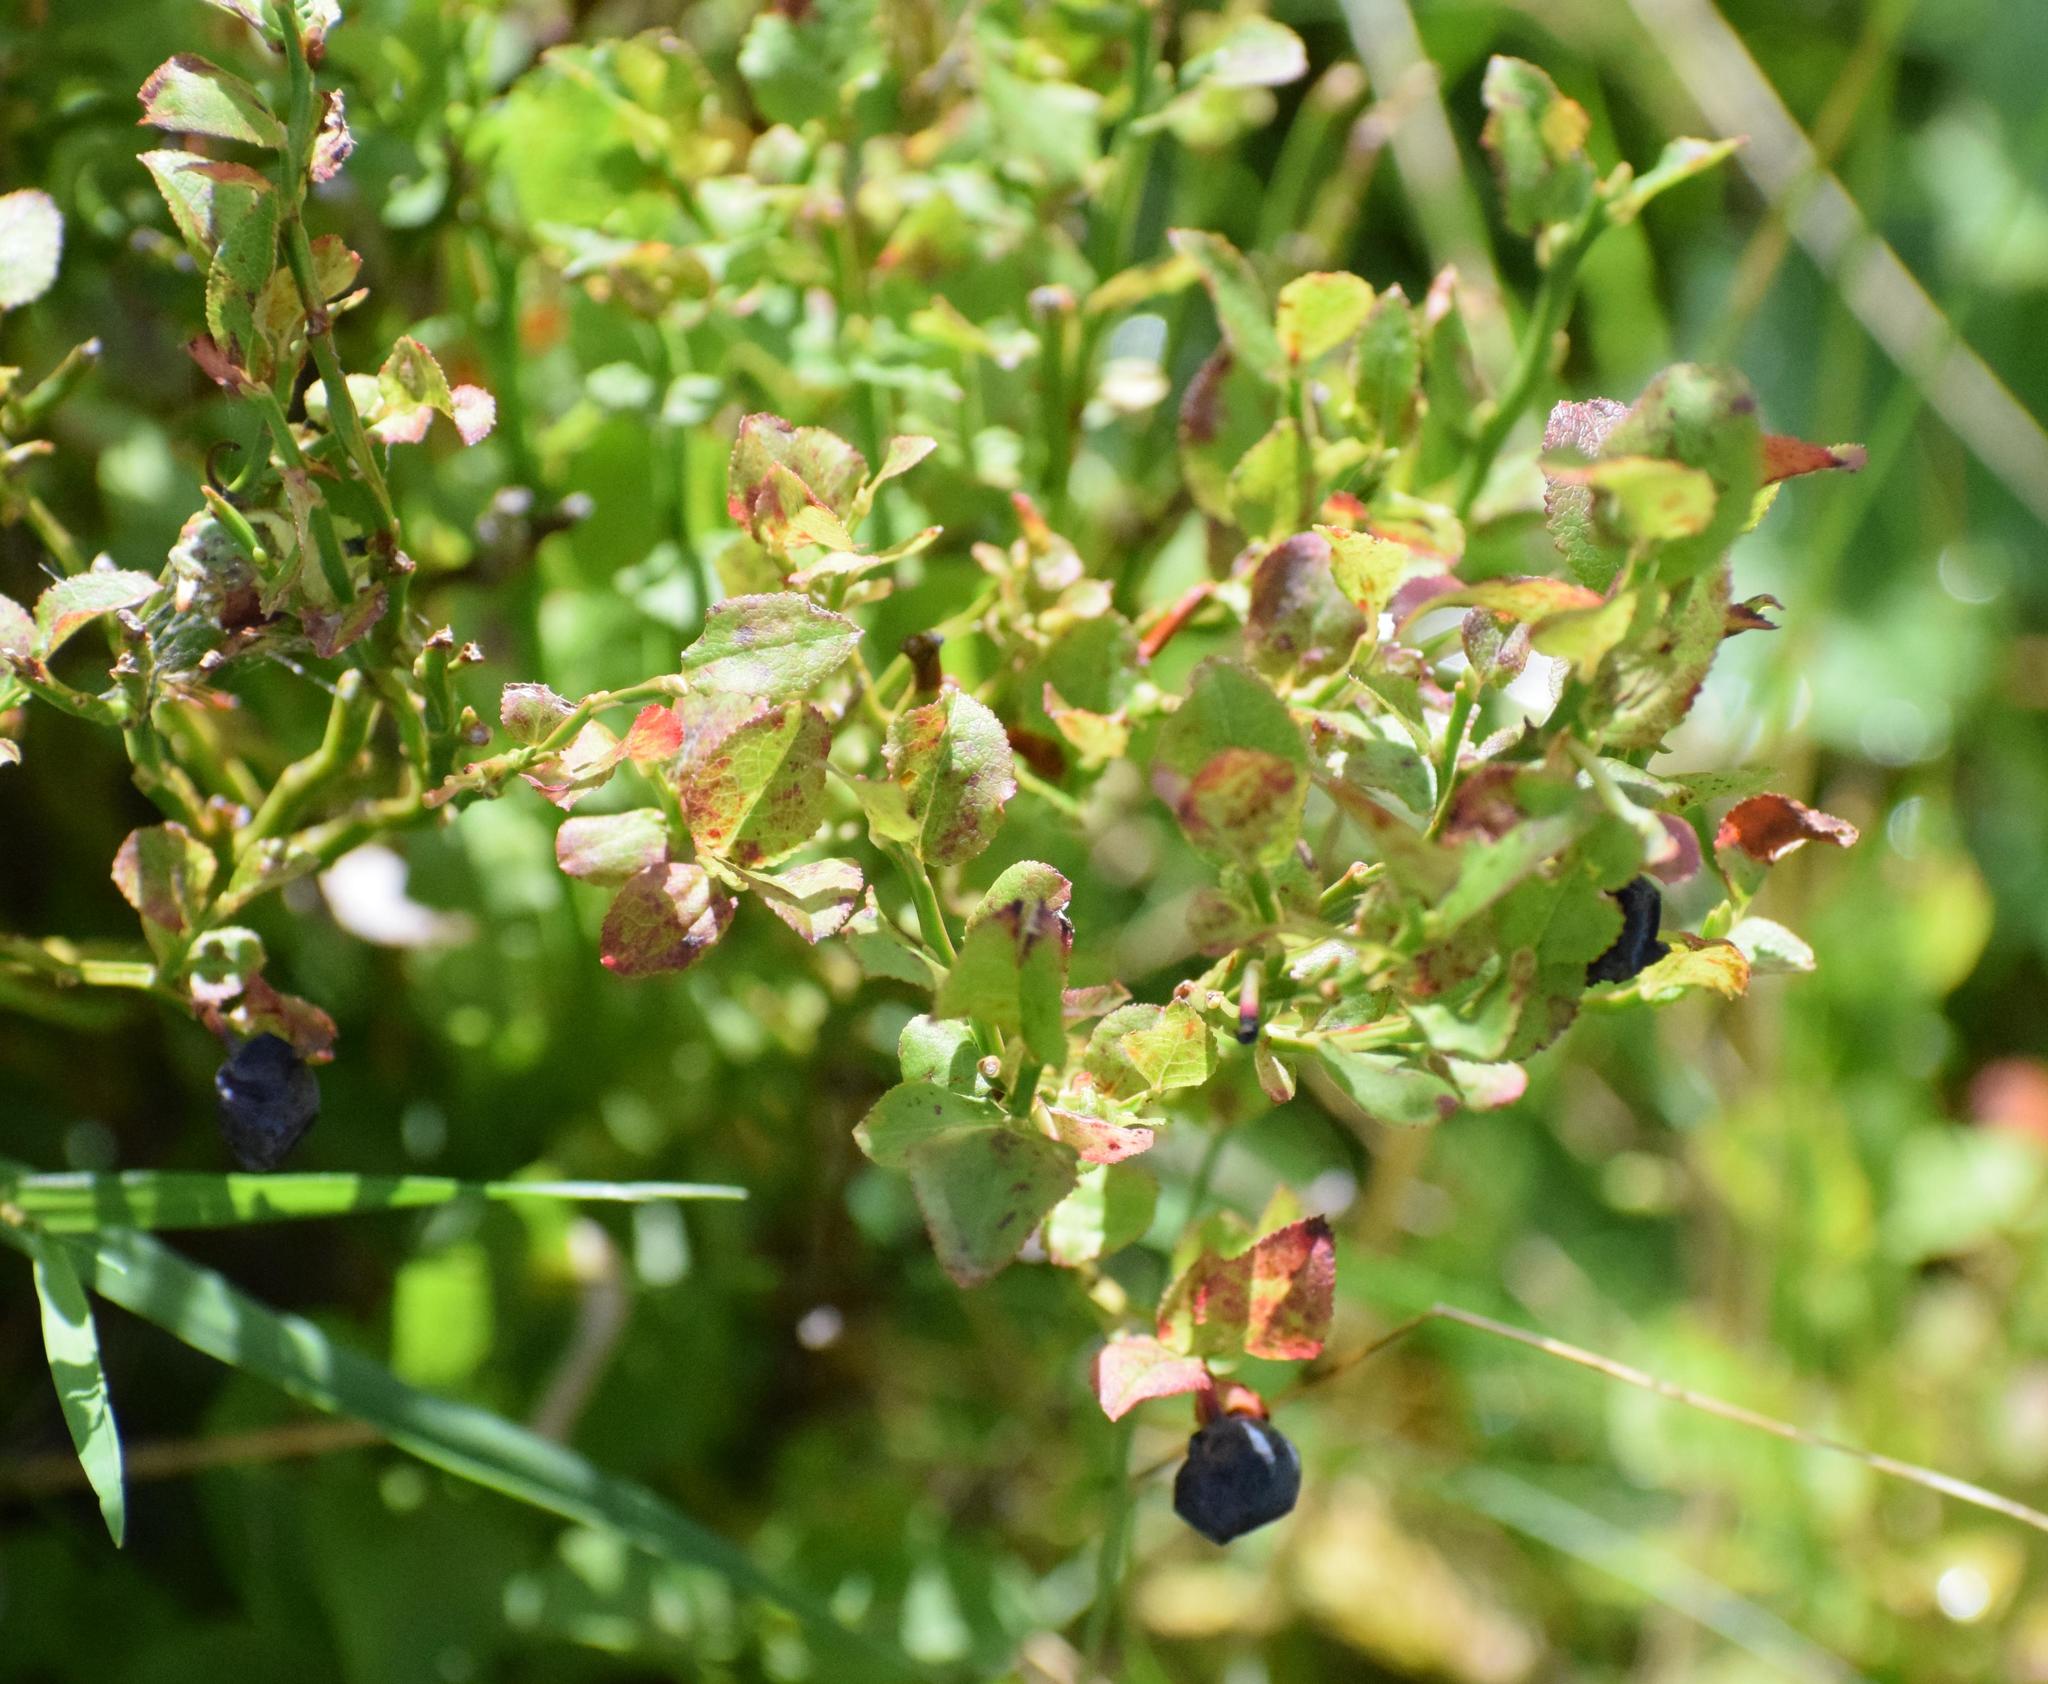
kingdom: Plantae
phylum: Tracheophyta
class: Magnoliopsida
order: Ericales
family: Ericaceae
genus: Vaccinium
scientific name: Vaccinium myrtillus
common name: Bilberry
